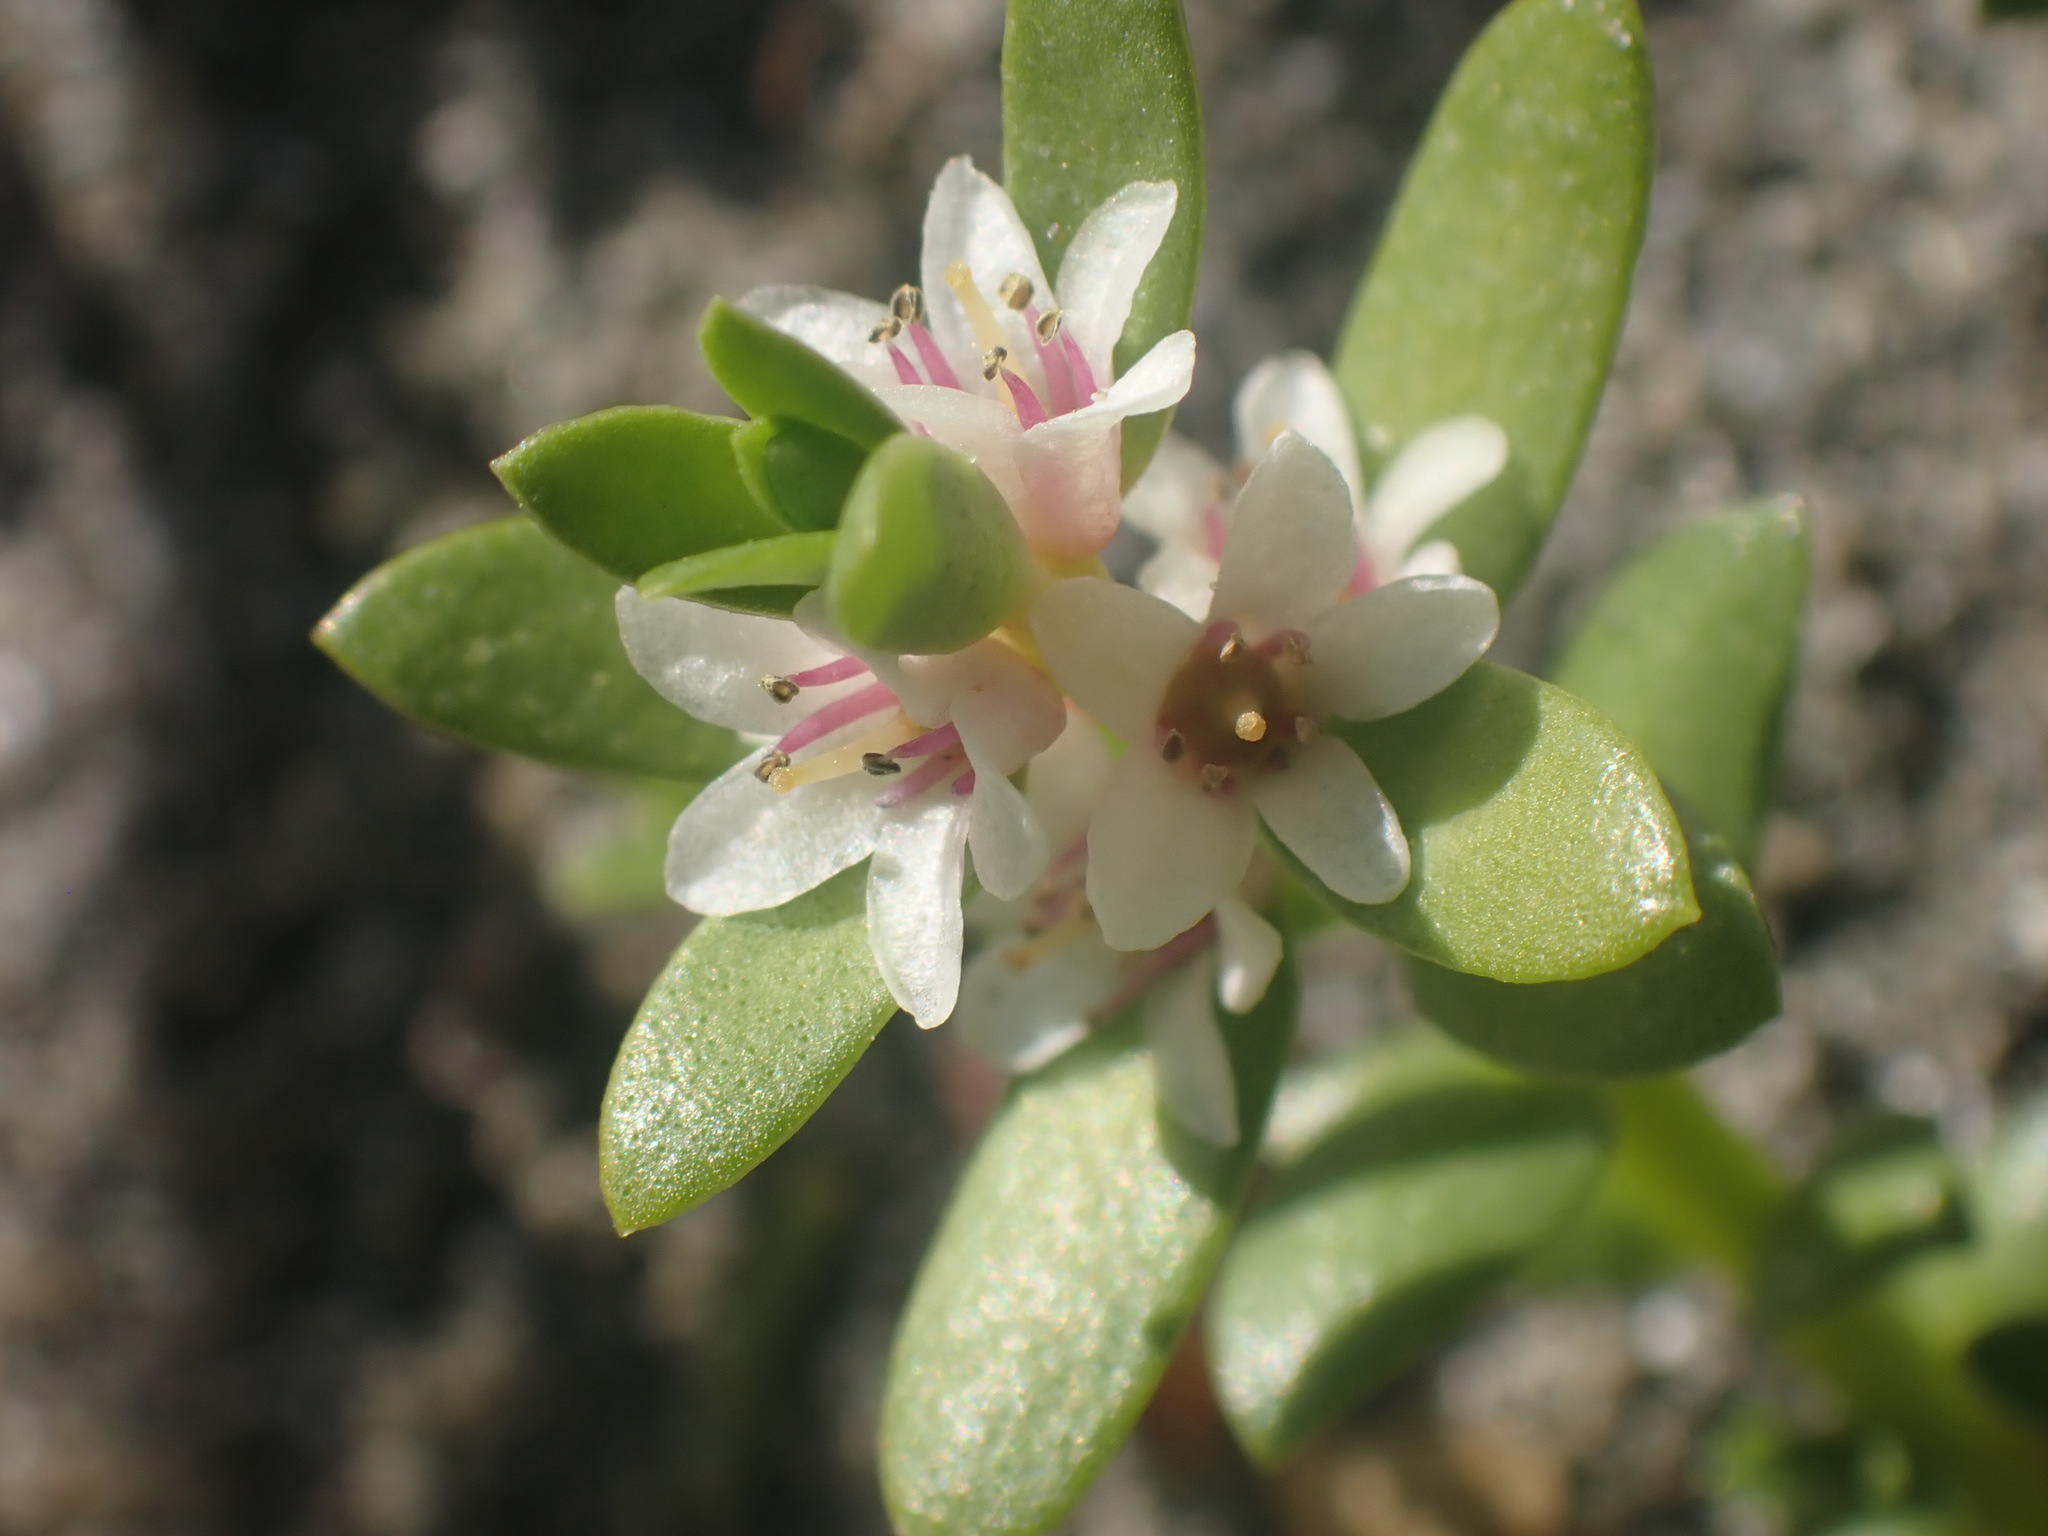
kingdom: Plantae
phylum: Tracheophyta
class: Magnoliopsida
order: Ericales
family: Primulaceae
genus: Lysimachia
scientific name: Lysimachia maritima
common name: Sea milkwort
